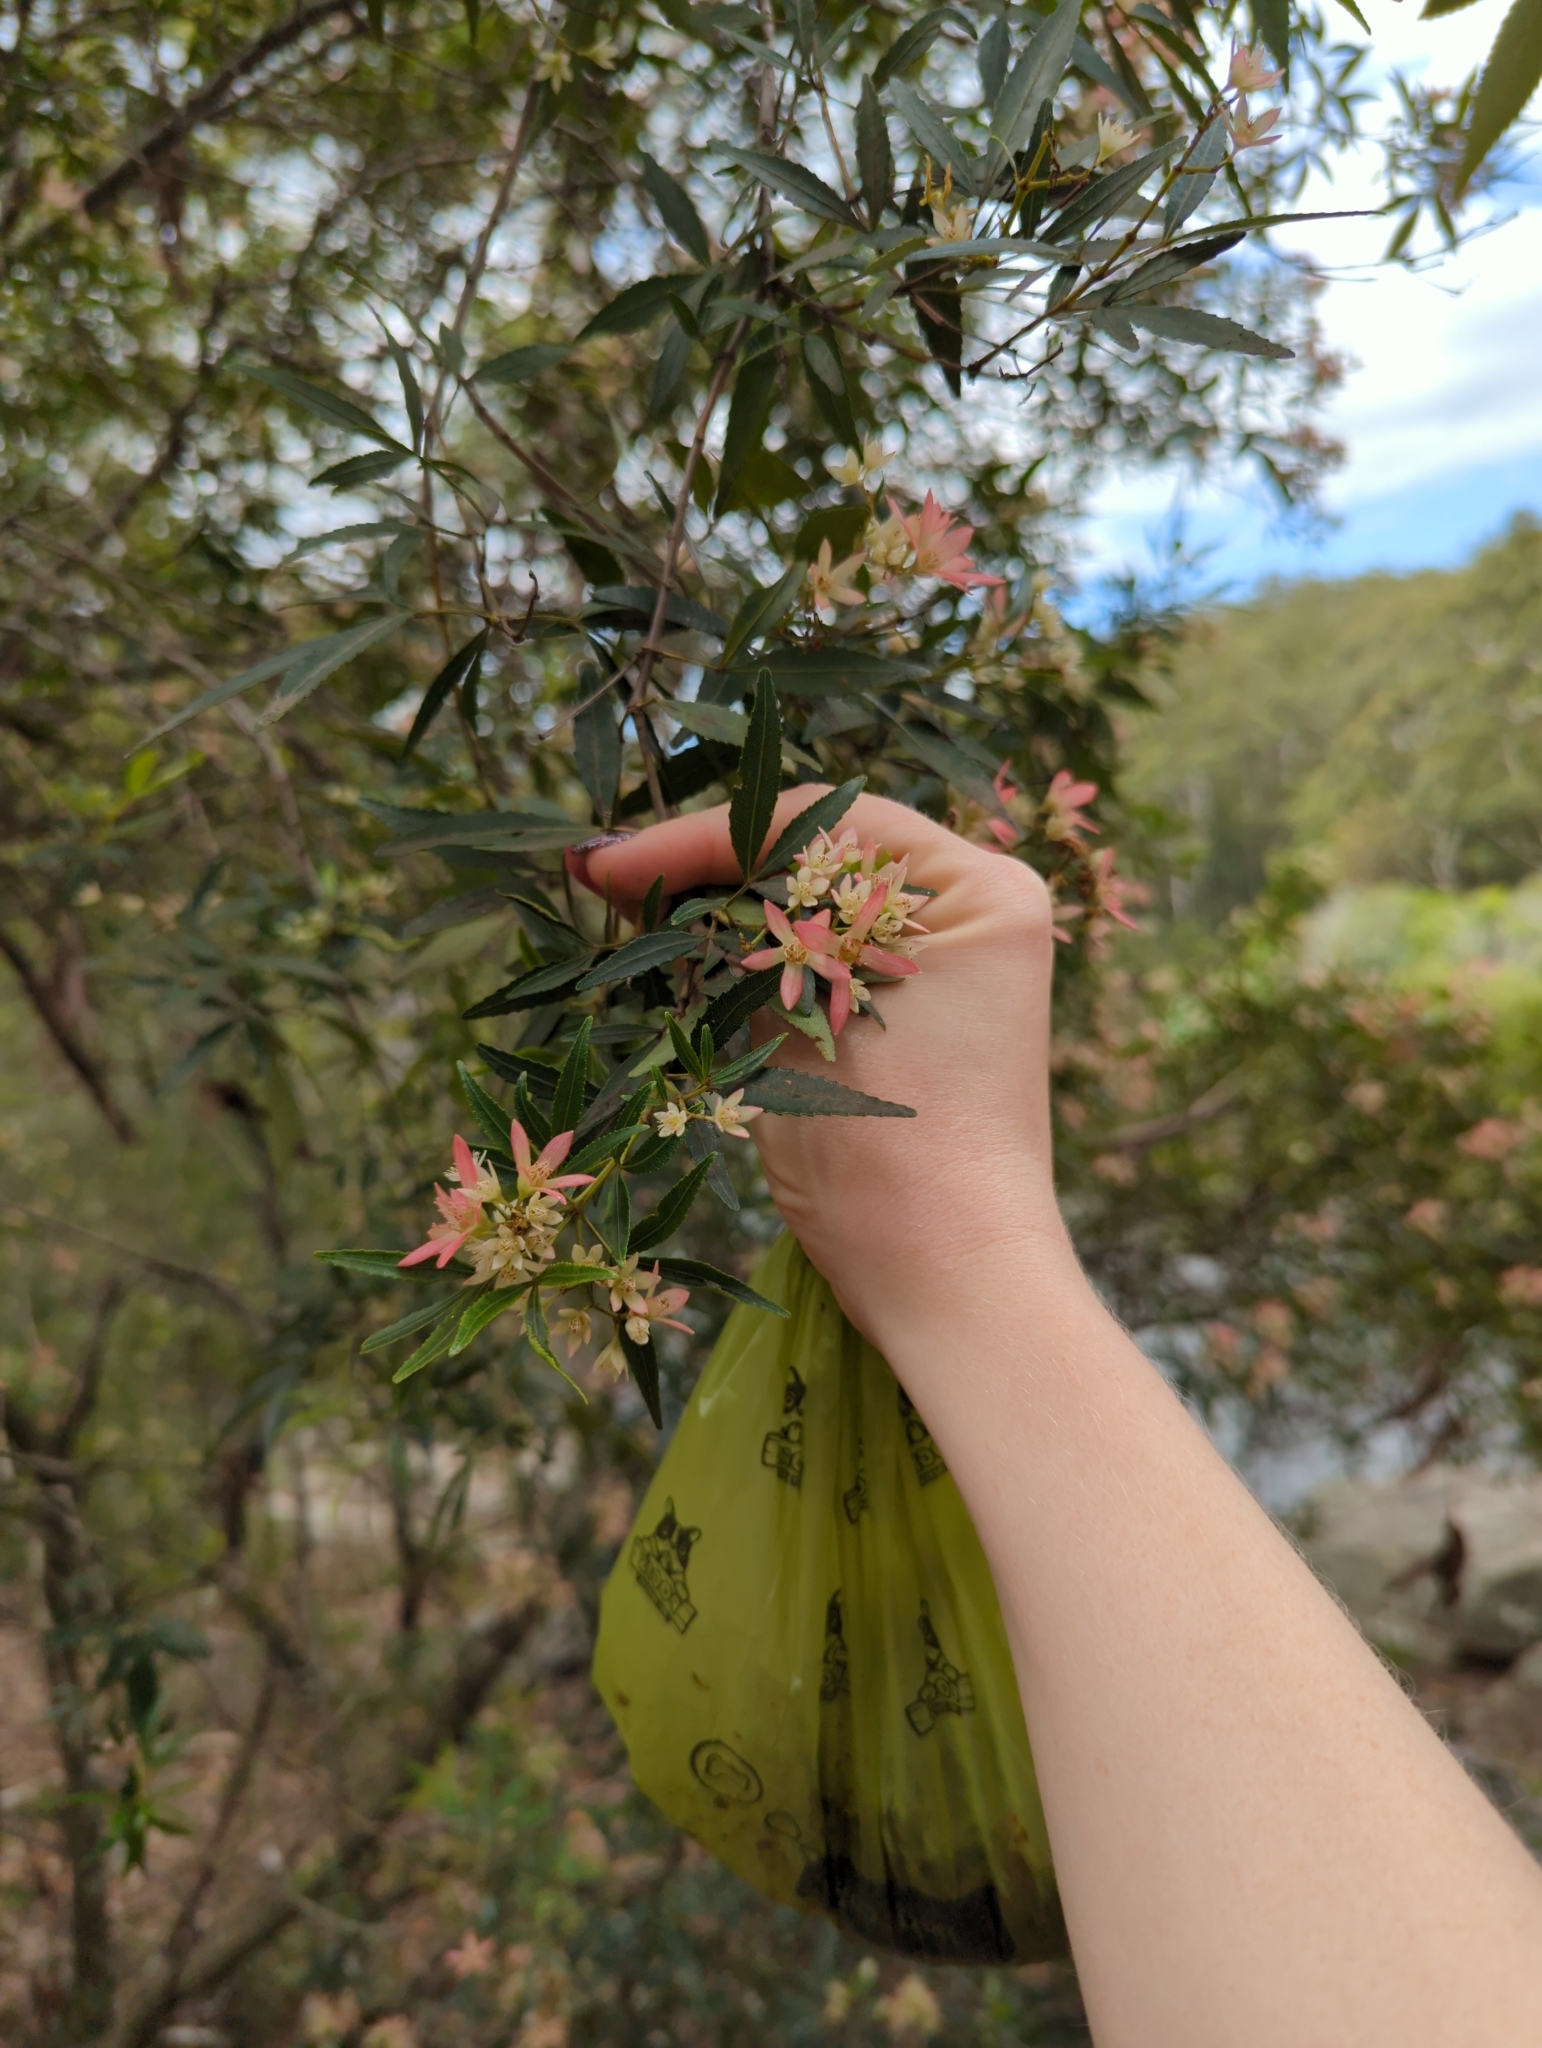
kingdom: Plantae
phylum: Tracheophyta
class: Magnoliopsida
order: Oxalidales
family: Cunoniaceae
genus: Ceratopetalum
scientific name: Ceratopetalum gummiferum
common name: Christmasbush
